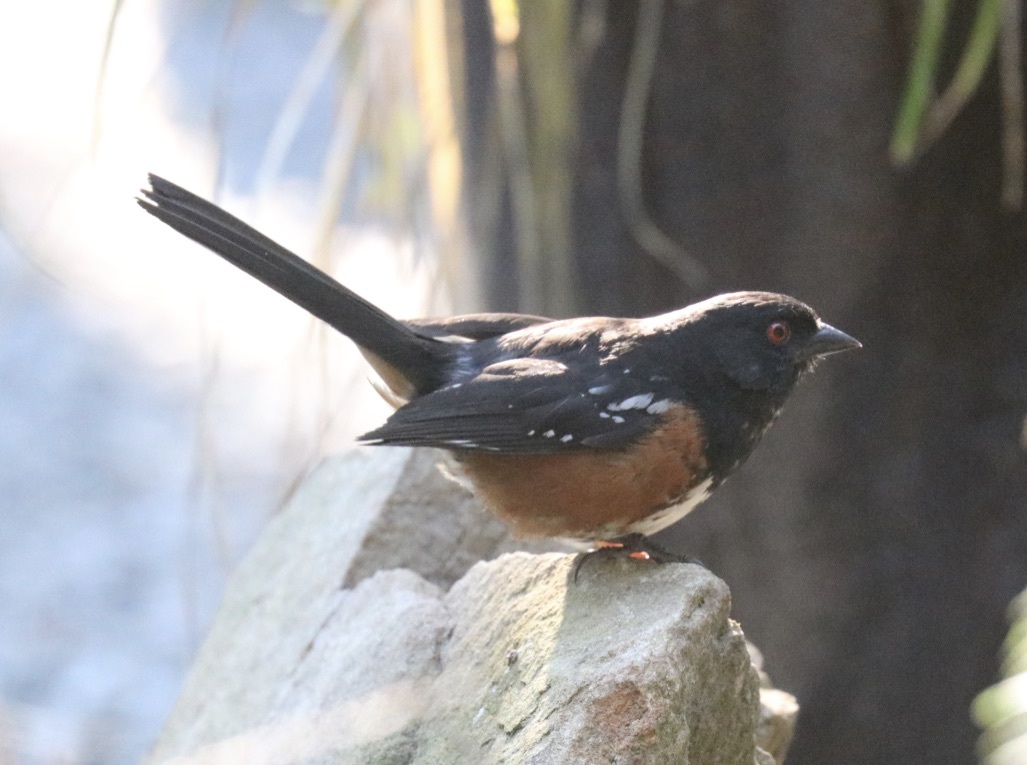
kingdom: Animalia
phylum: Chordata
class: Aves
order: Passeriformes
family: Passerellidae
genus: Pipilo
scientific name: Pipilo maculatus
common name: Spotted towhee
